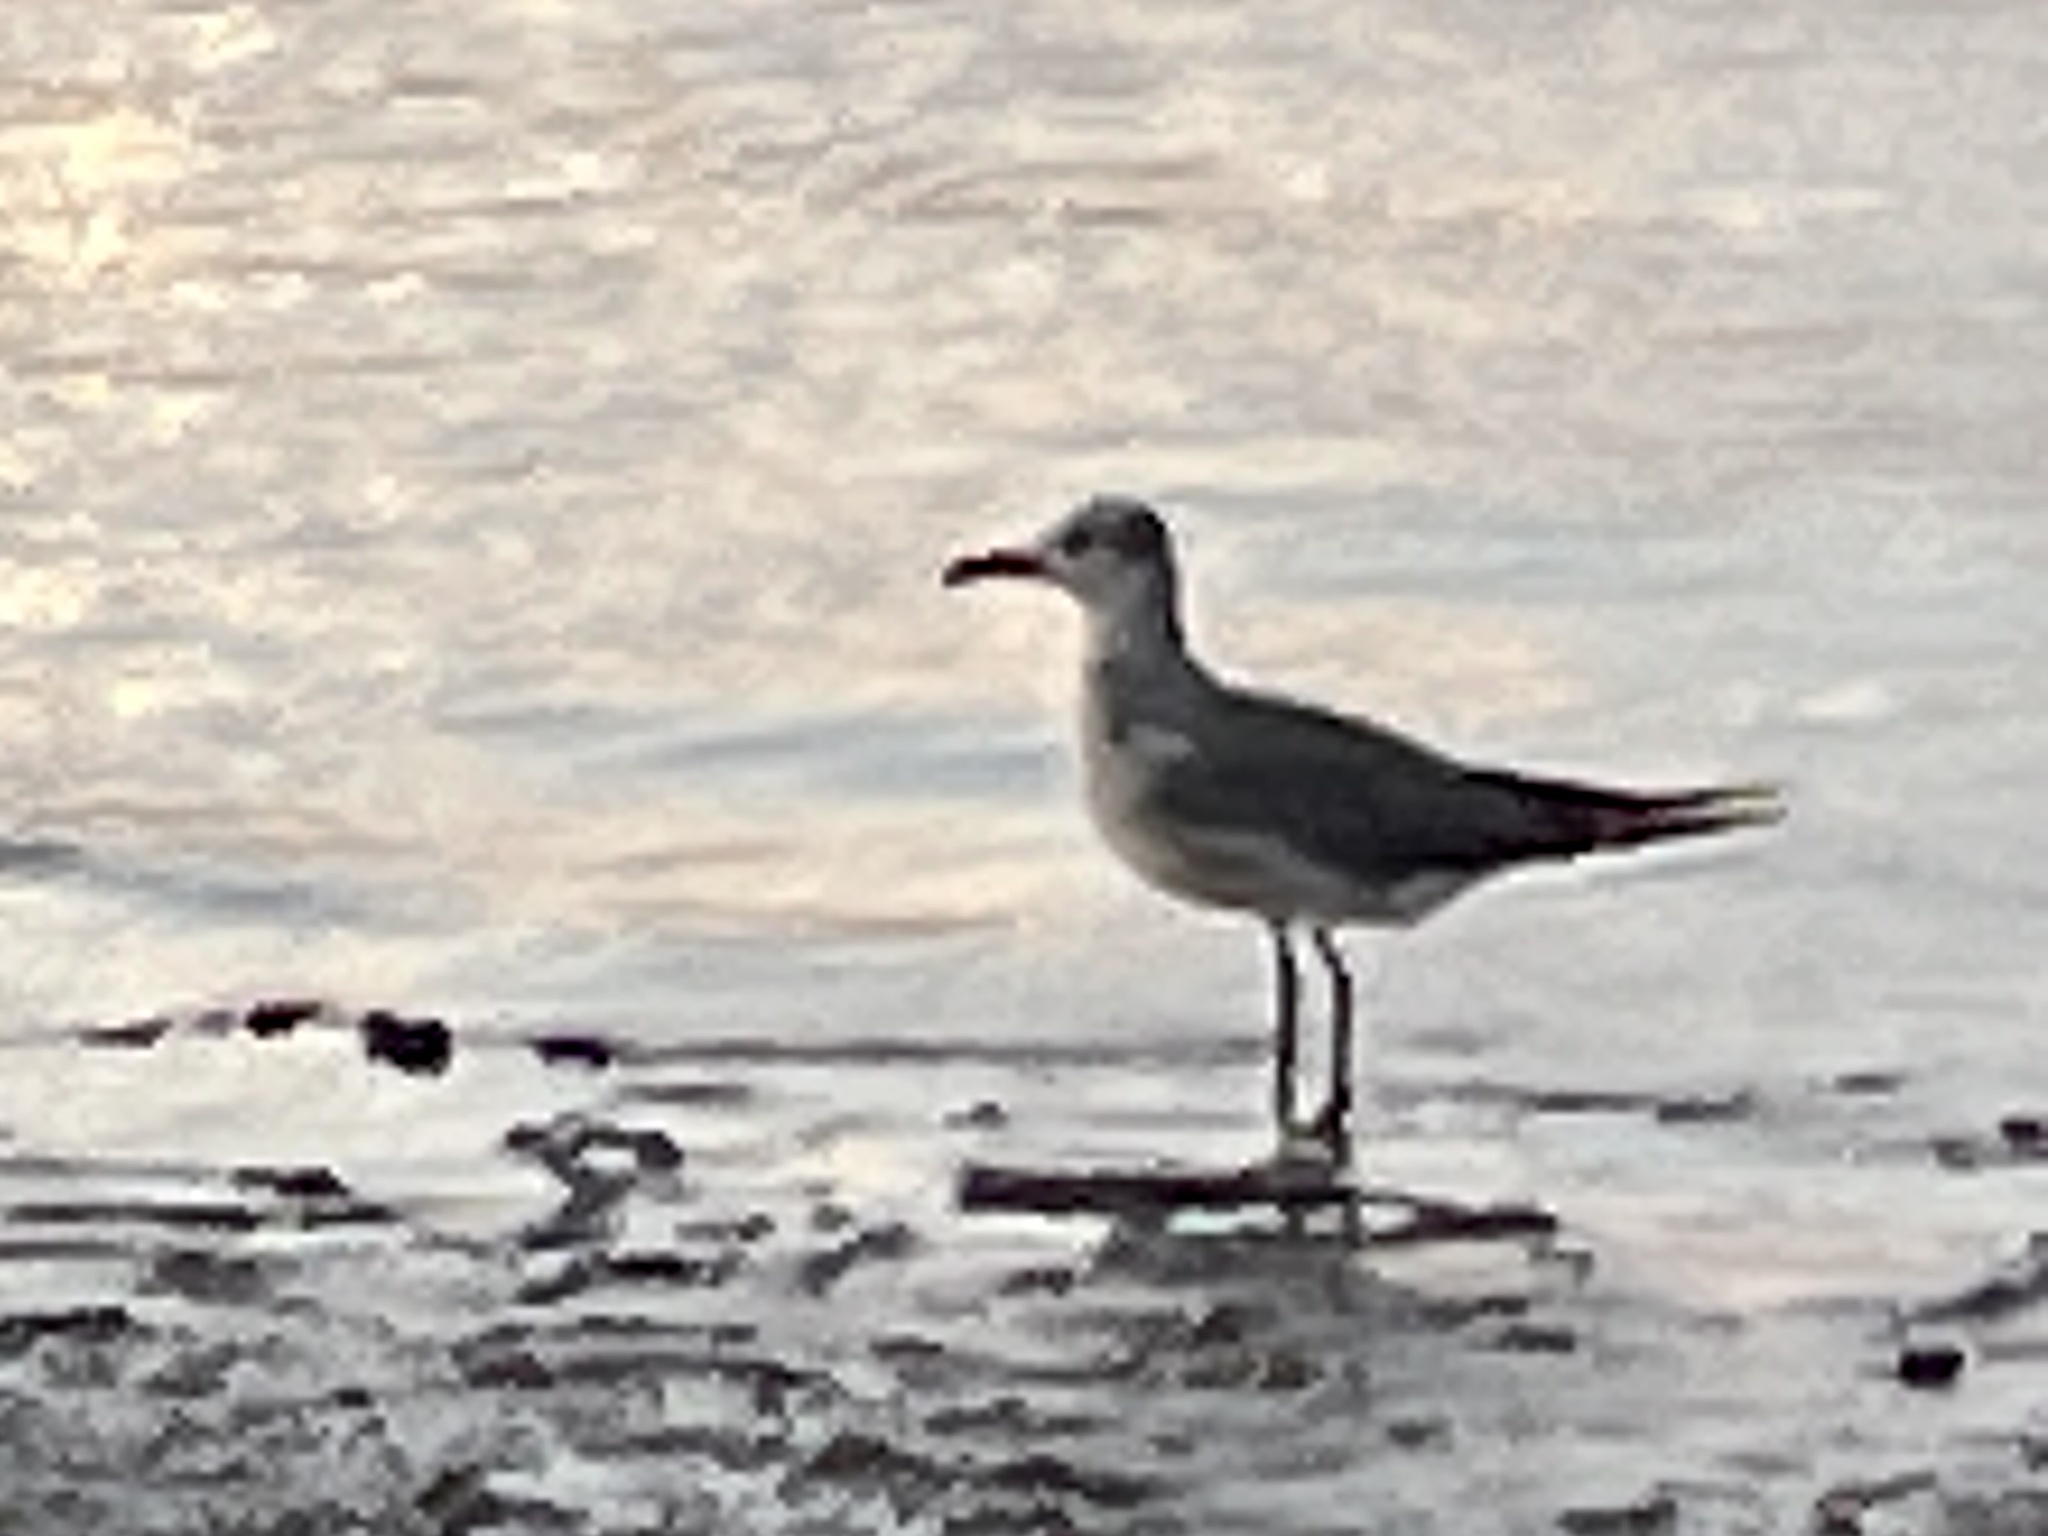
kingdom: Animalia
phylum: Chordata
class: Aves
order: Charadriiformes
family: Laridae
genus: Leucophaeus
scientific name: Leucophaeus atricilla
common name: Laughing gull
